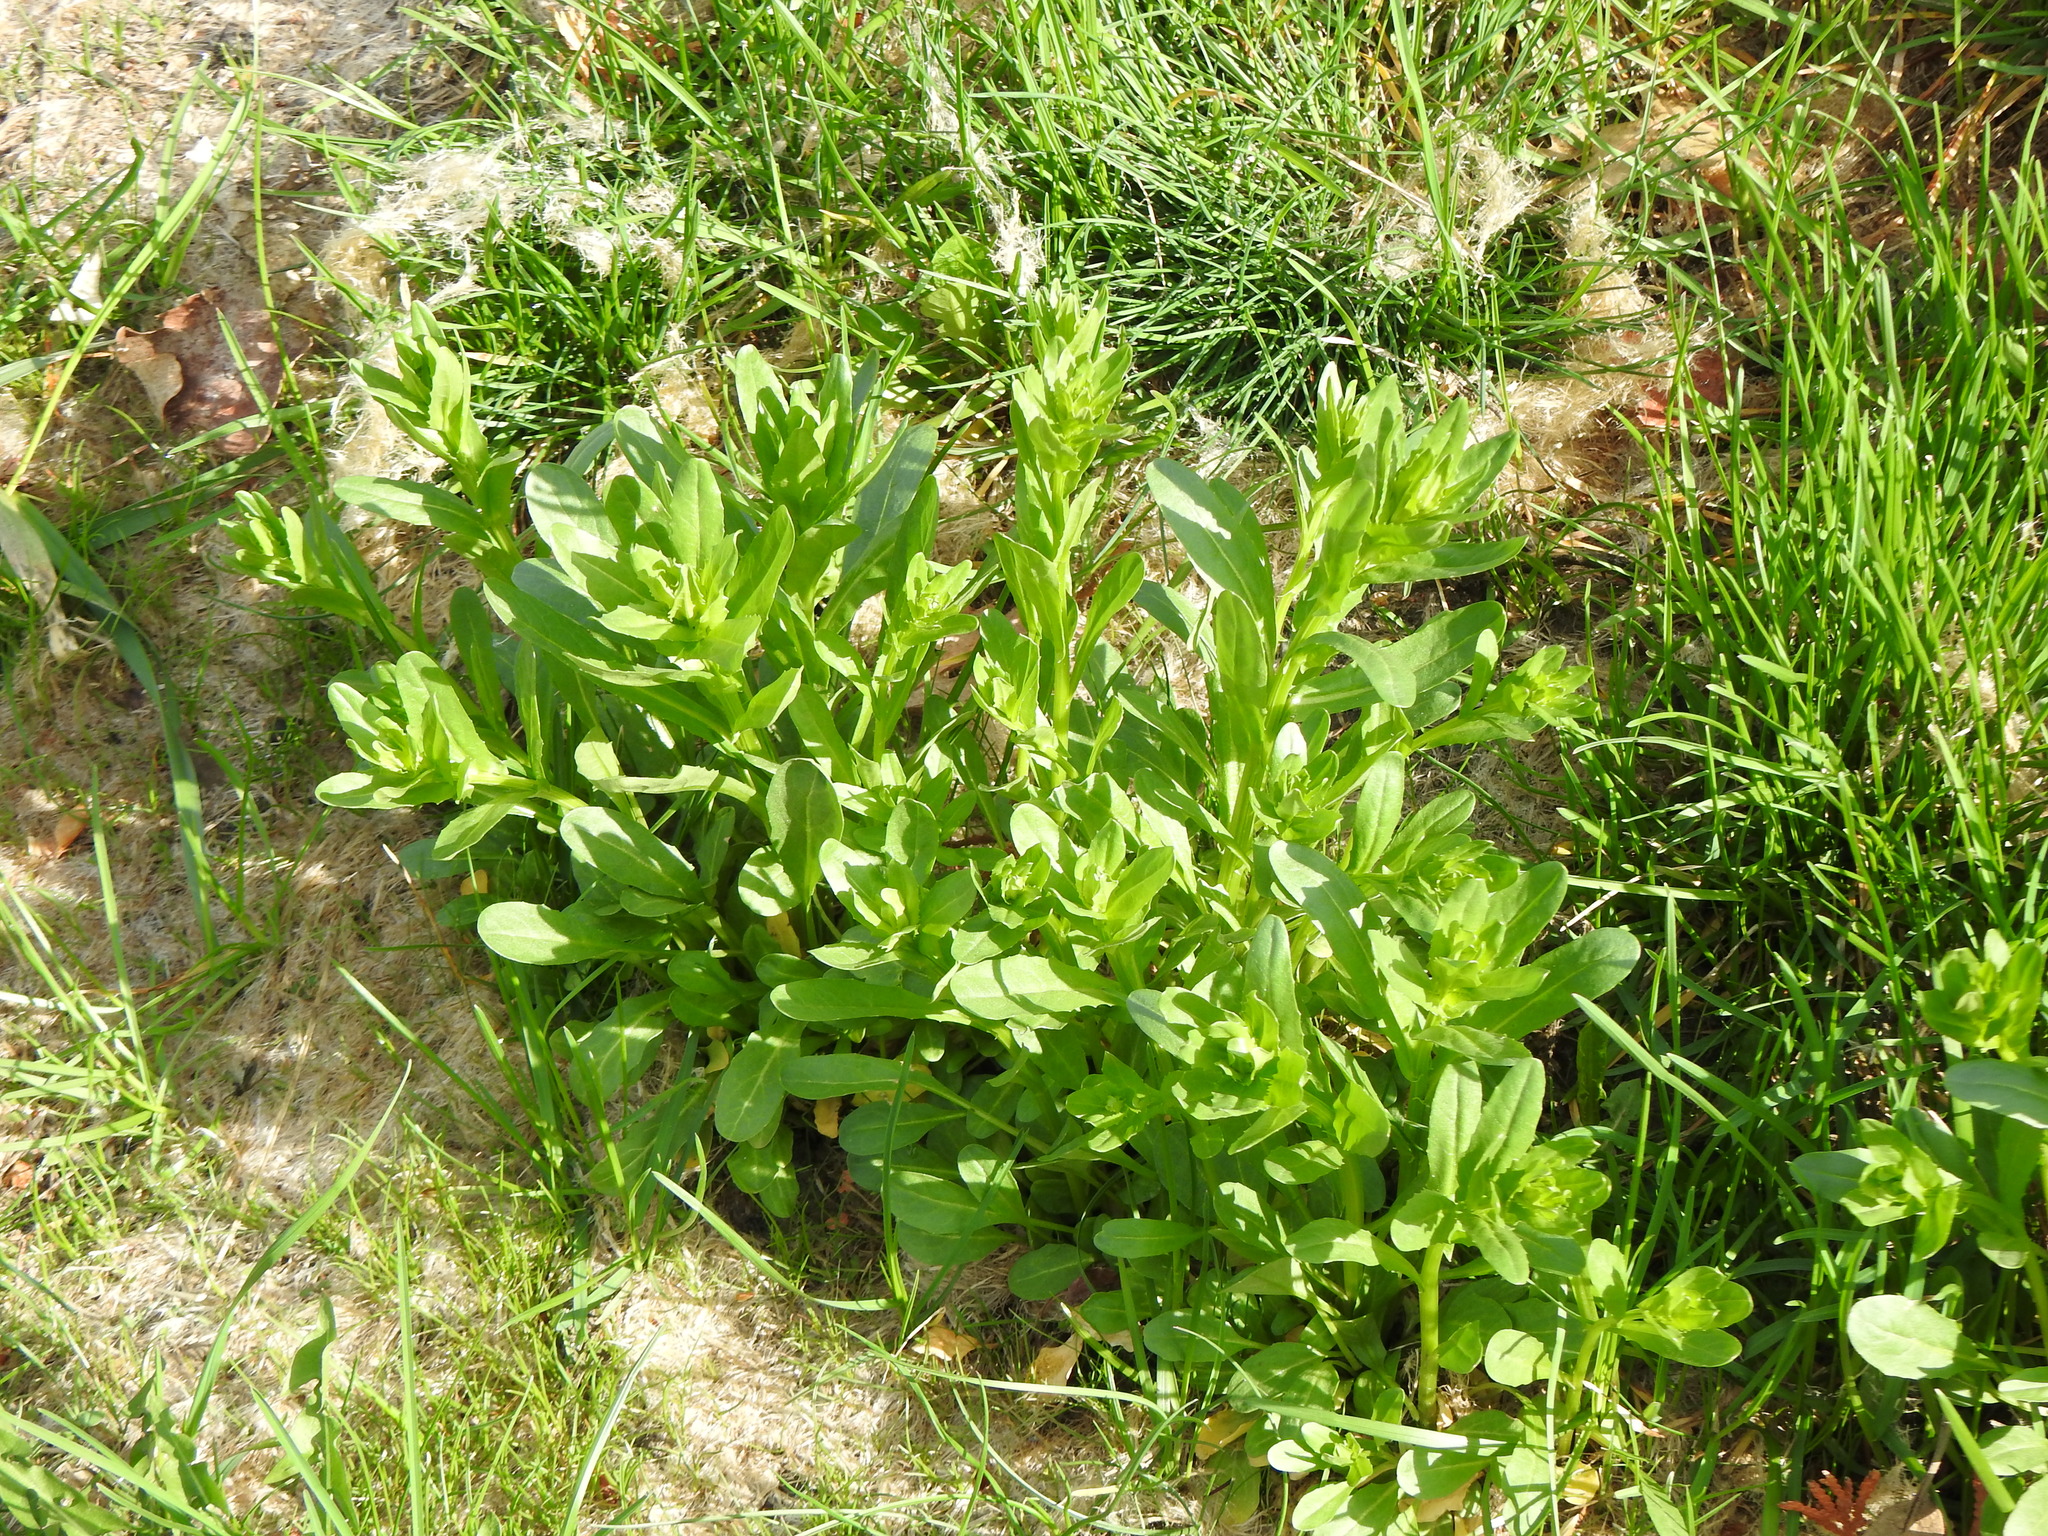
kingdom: Plantae
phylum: Tracheophyta
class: Magnoliopsida
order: Brassicales
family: Brassicaceae
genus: Thlaspi
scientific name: Thlaspi arvense
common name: Field pennycress
